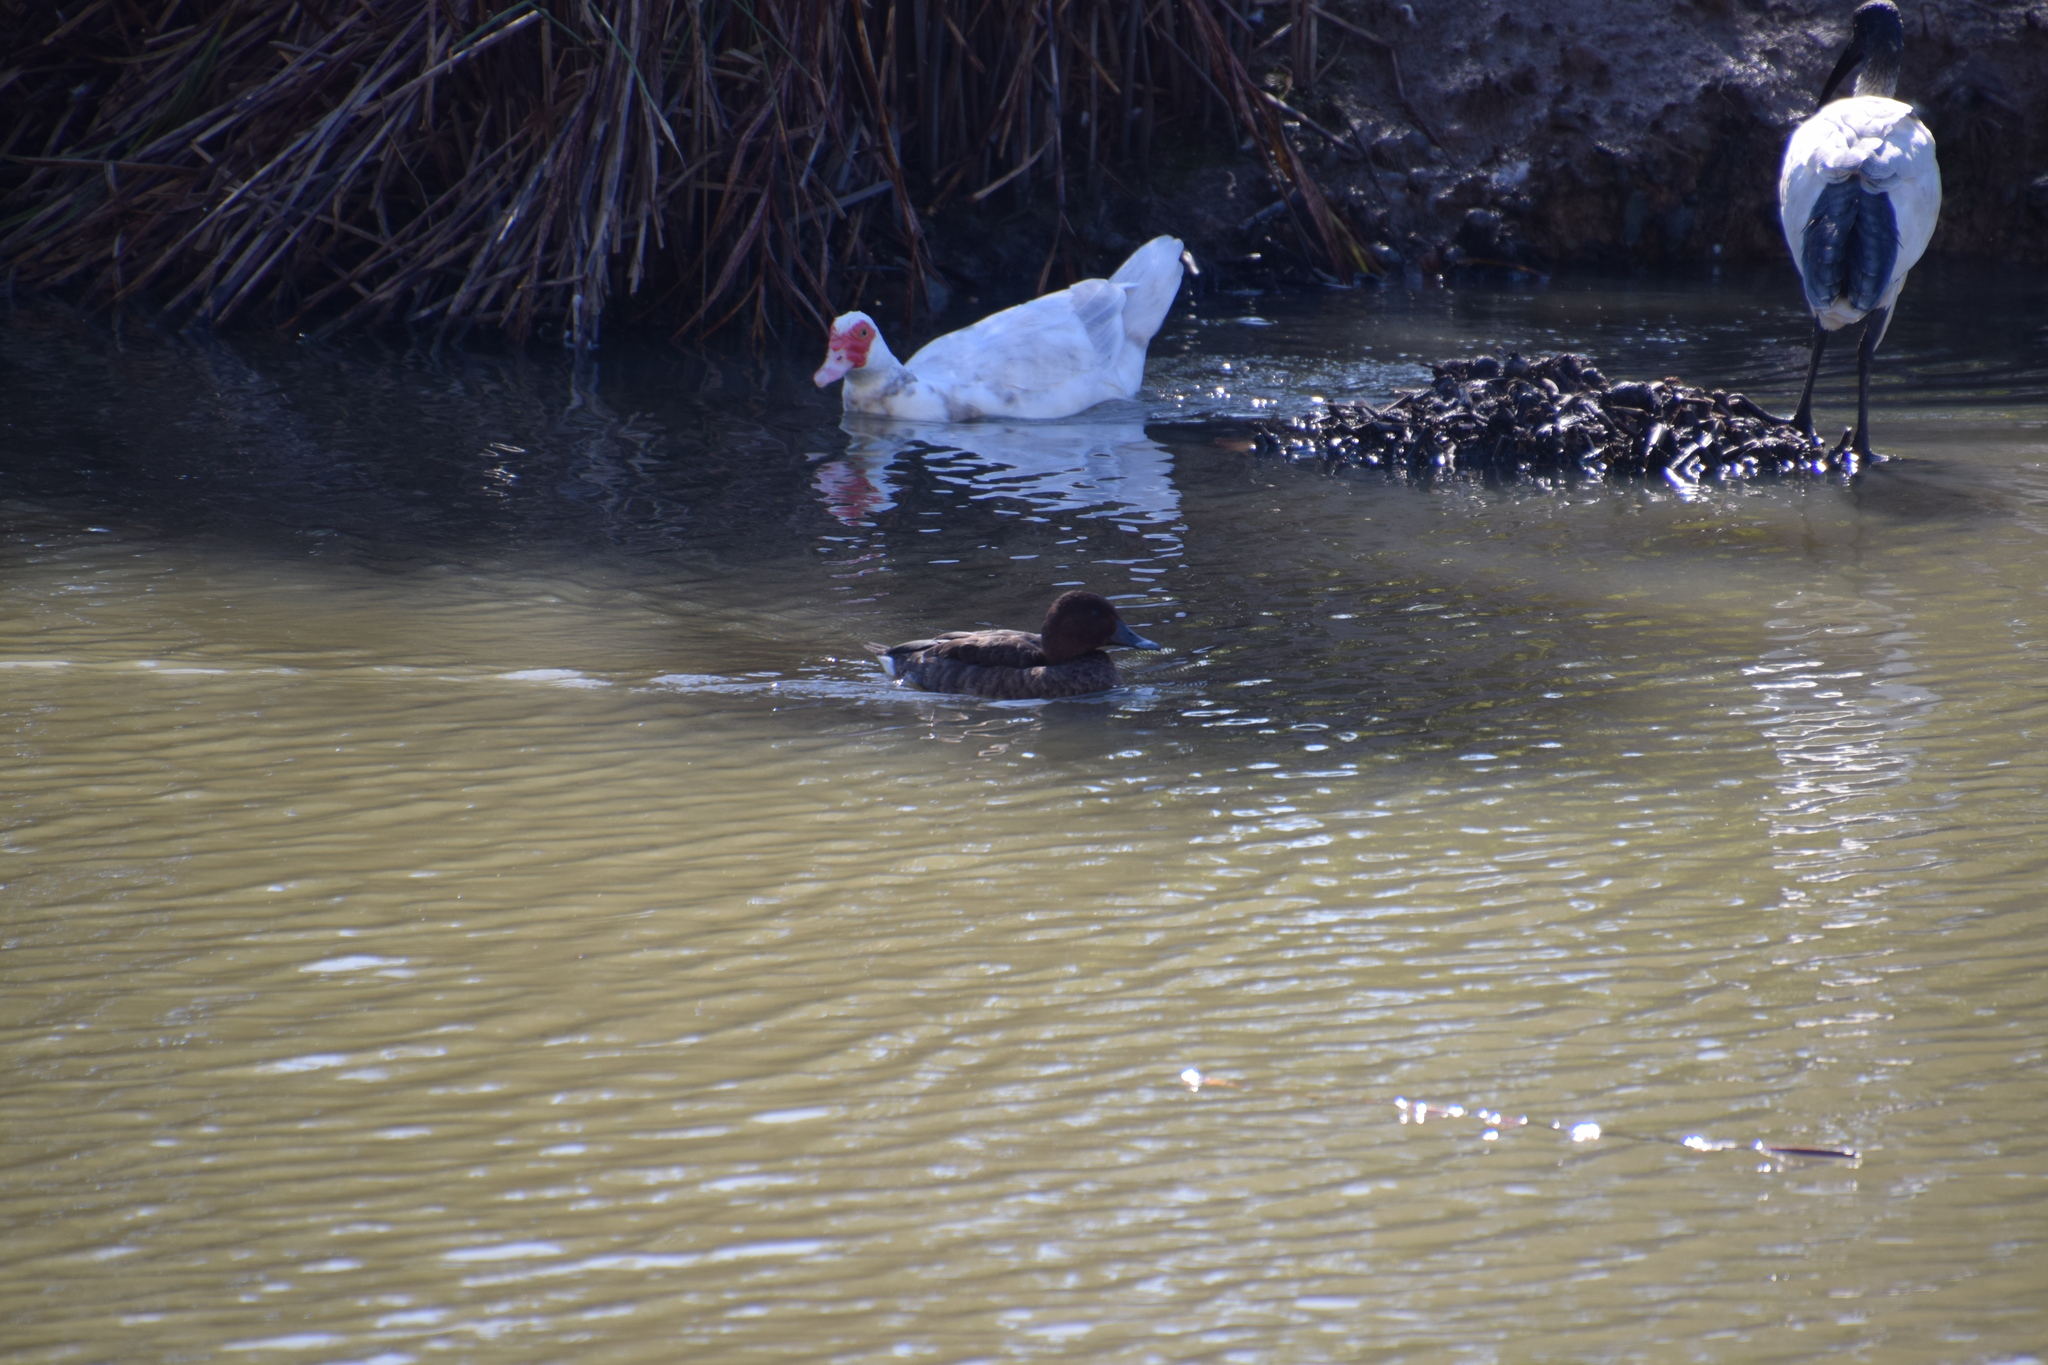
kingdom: Animalia
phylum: Chordata
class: Aves
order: Anseriformes
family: Anatidae
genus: Aythya
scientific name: Aythya australis
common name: Hardhead
